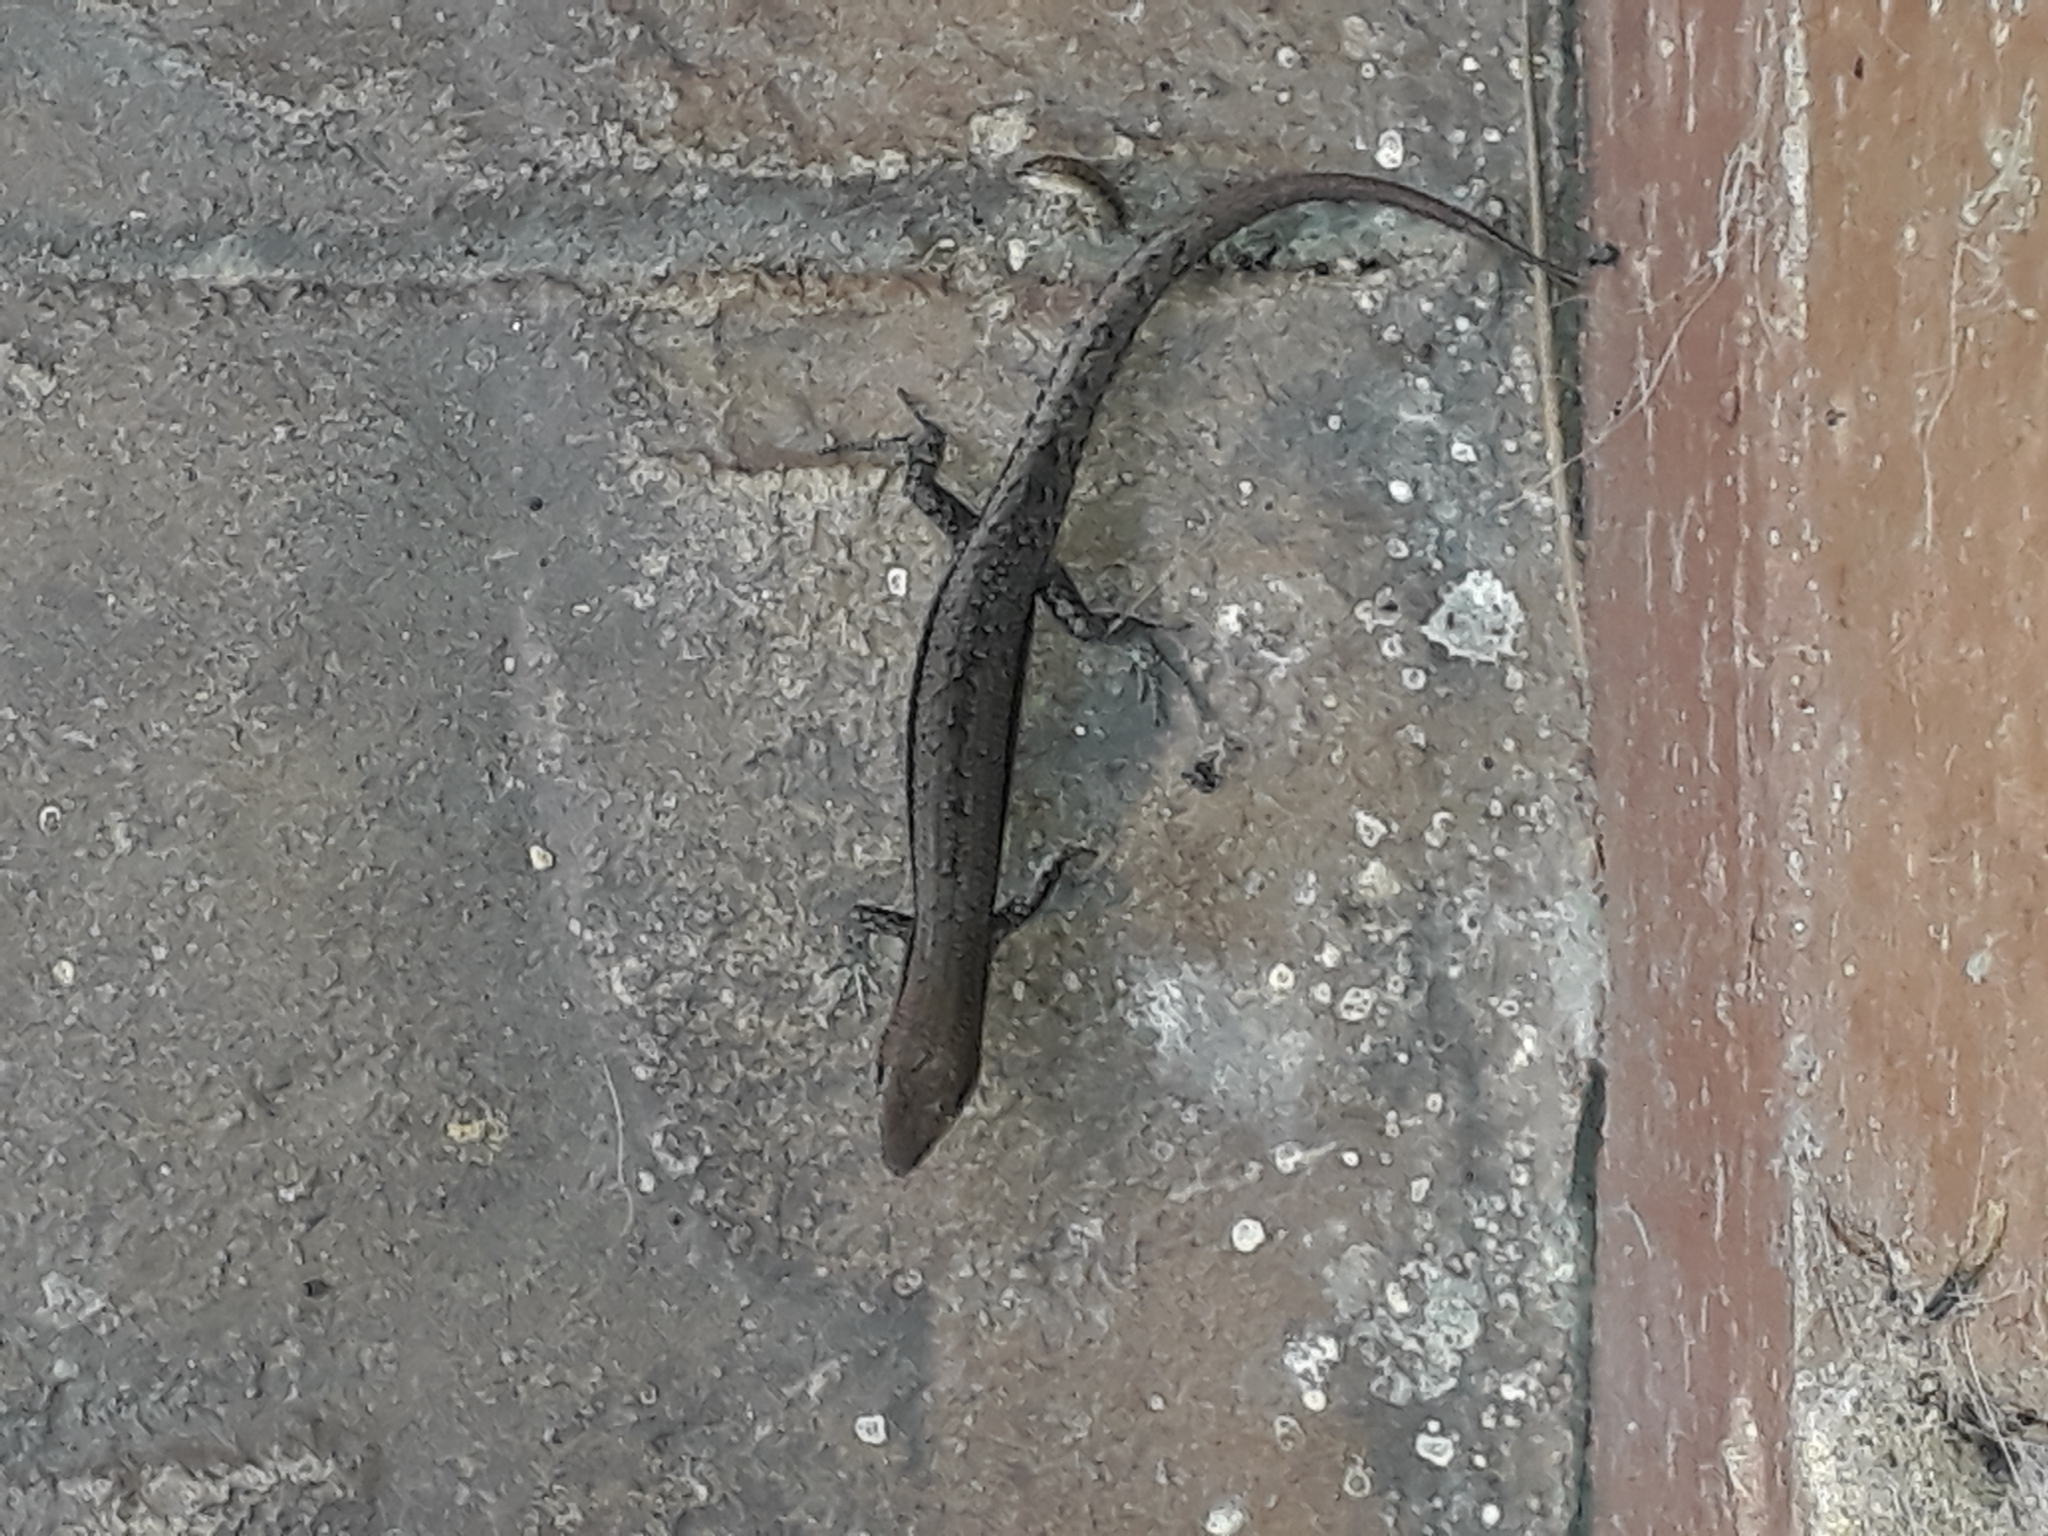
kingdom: Animalia
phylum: Chordata
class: Squamata
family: Scincidae
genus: Lampropholis
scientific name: Lampropholis guichenoti
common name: Garden skink
